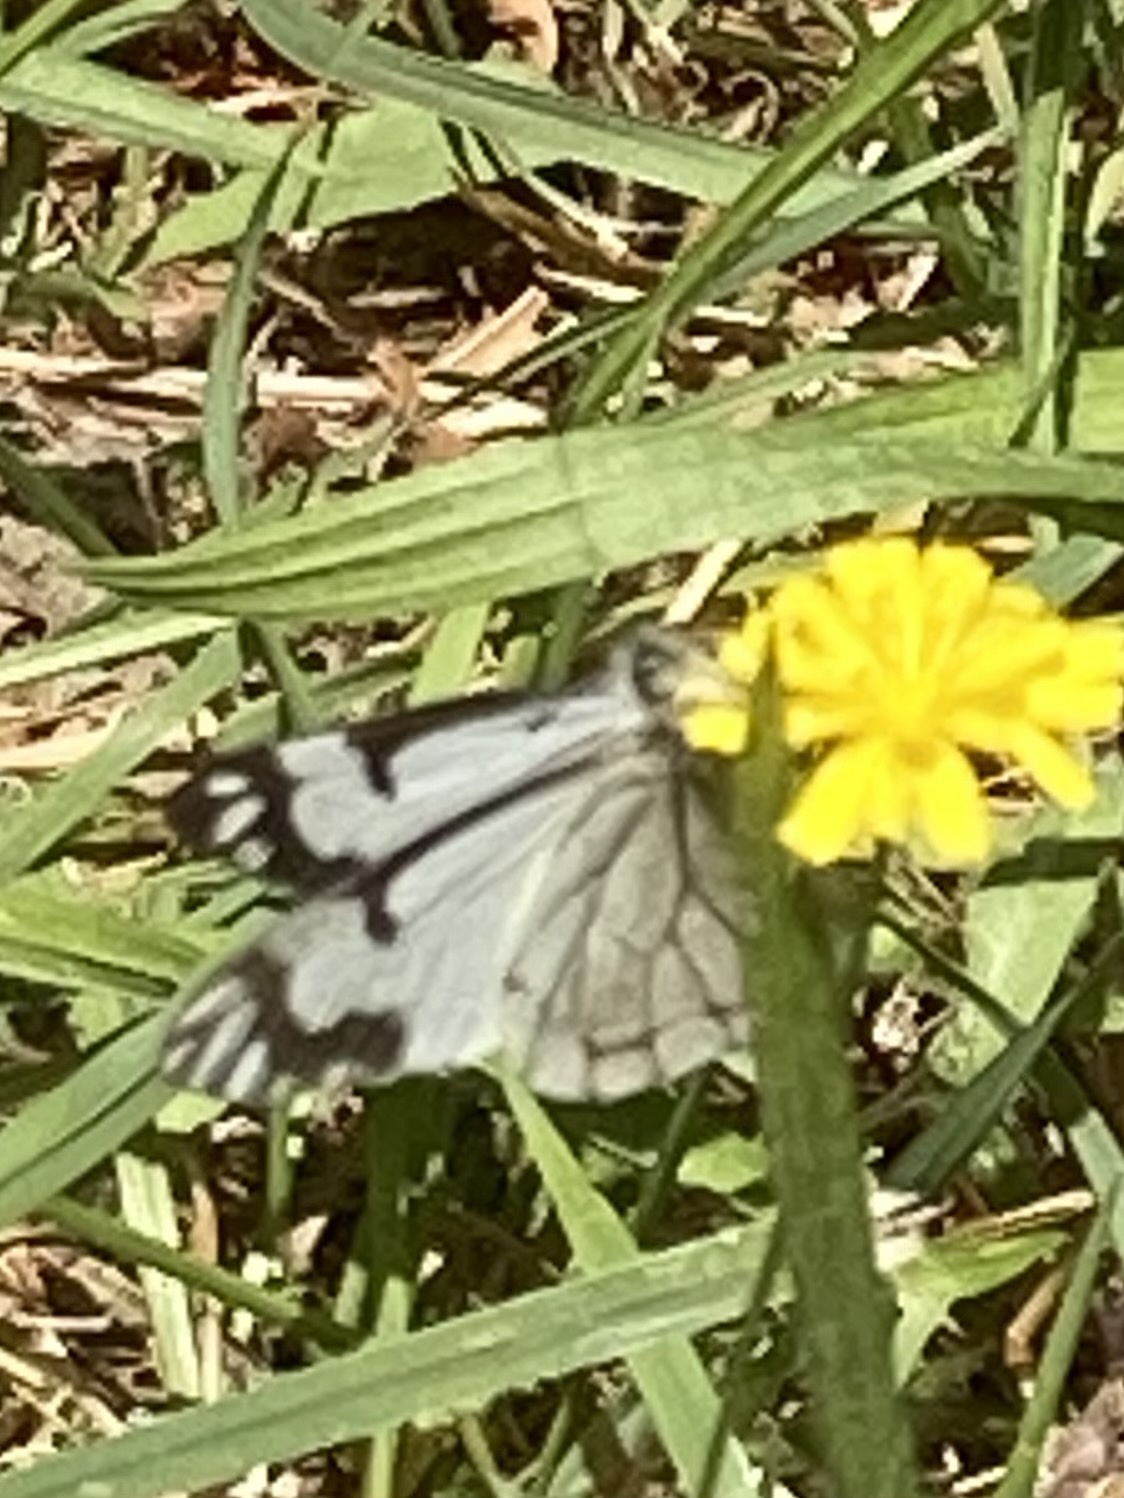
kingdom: Animalia
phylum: Arthropoda
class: Insecta
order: Lepidoptera
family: Pieridae
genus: Neophasia
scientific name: Neophasia menapia
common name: Pine white
